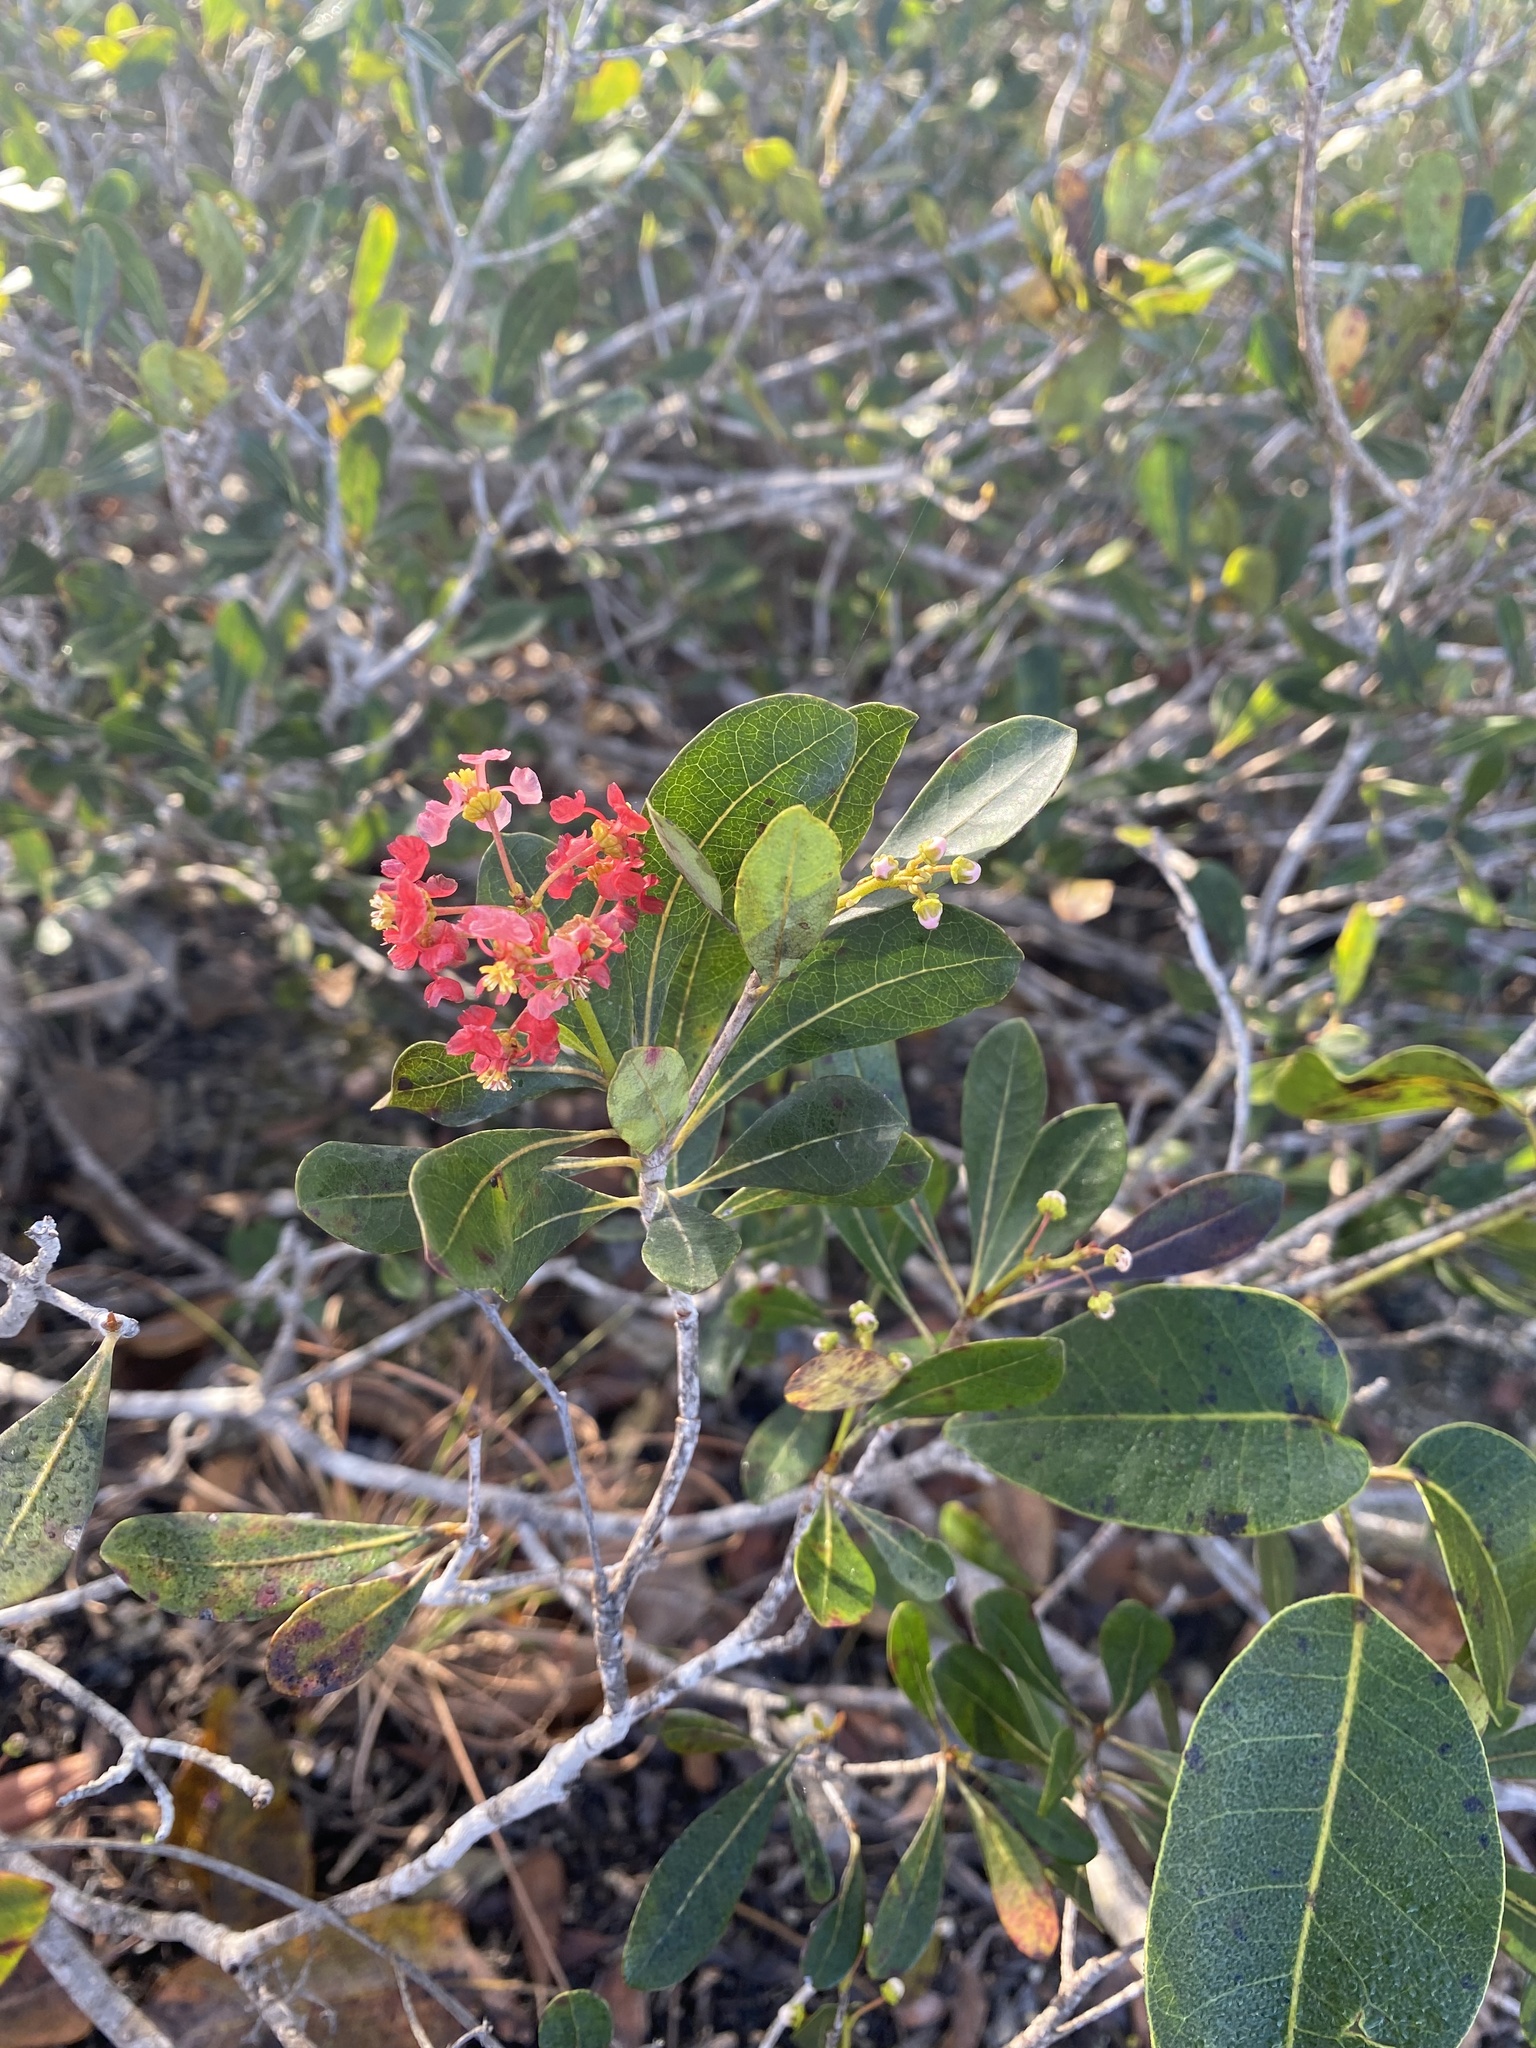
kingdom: Plantae
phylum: Tracheophyta
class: Magnoliopsida
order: Malpighiales
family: Malpighiaceae
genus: Byrsonima
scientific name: Byrsonima lucida
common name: Clam-cherry
